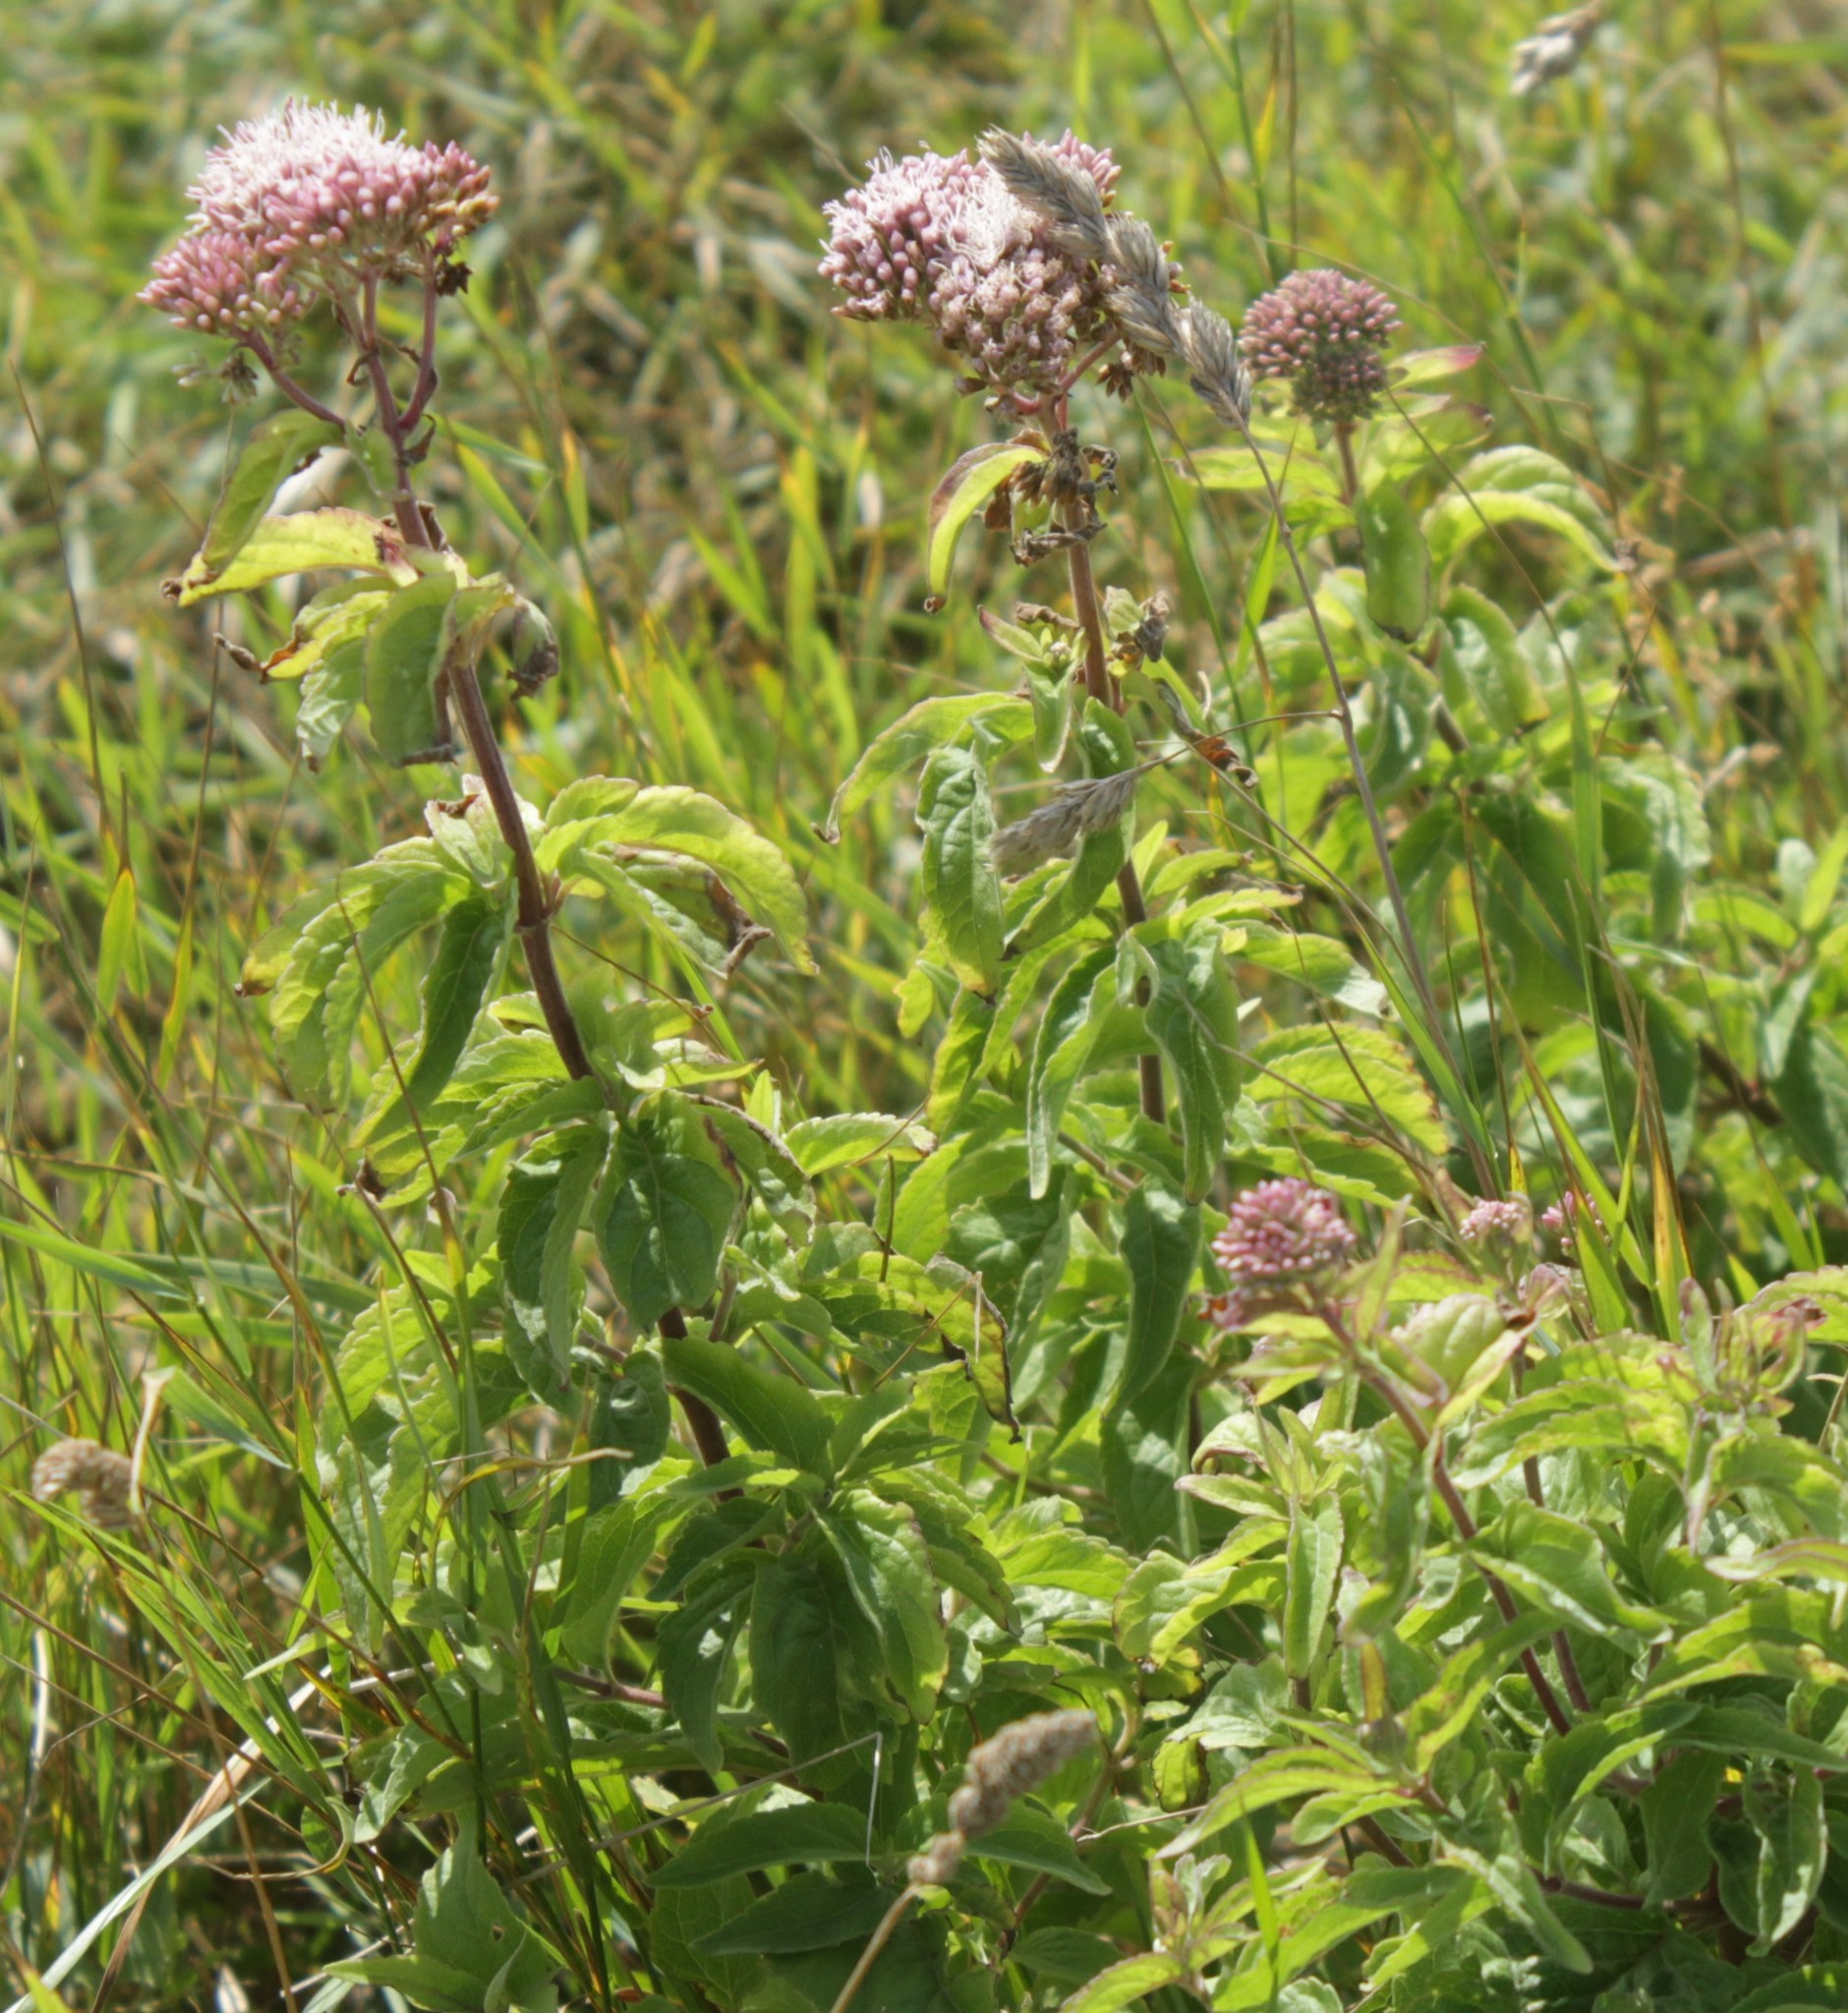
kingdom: Plantae
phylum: Tracheophyta
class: Magnoliopsida
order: Asterales
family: Asteraceae
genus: Eupatorium
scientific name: Eupatorium cannabinum
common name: Hemp-agrimony
